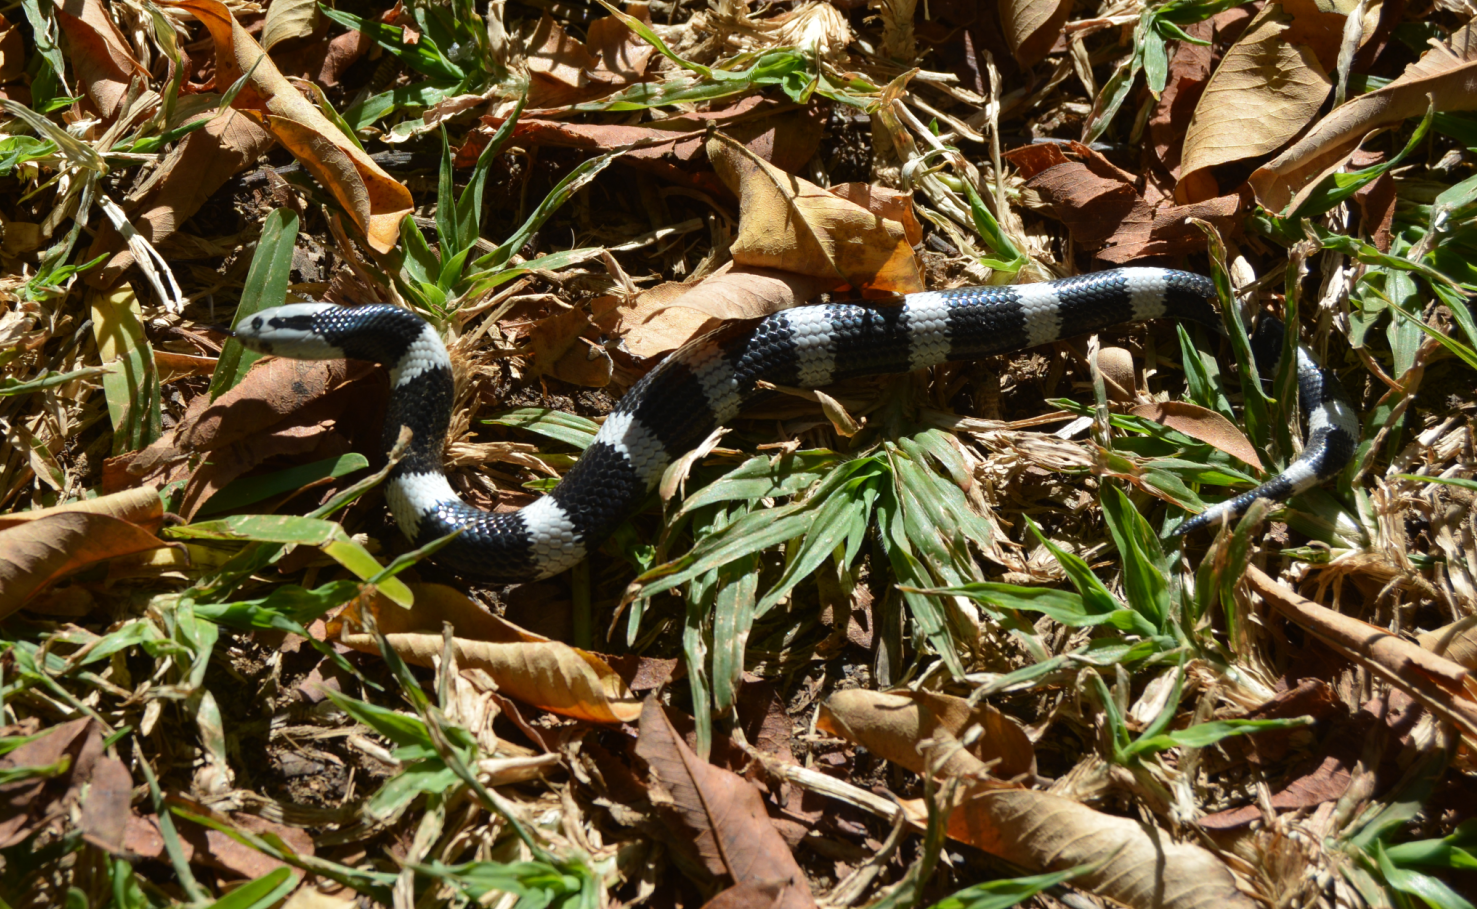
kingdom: Animalia
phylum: Chordata
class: Squamata
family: Elapidae
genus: Elapsoidea
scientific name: Elapsoidea boulengeri
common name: Boulenger's garter snake
